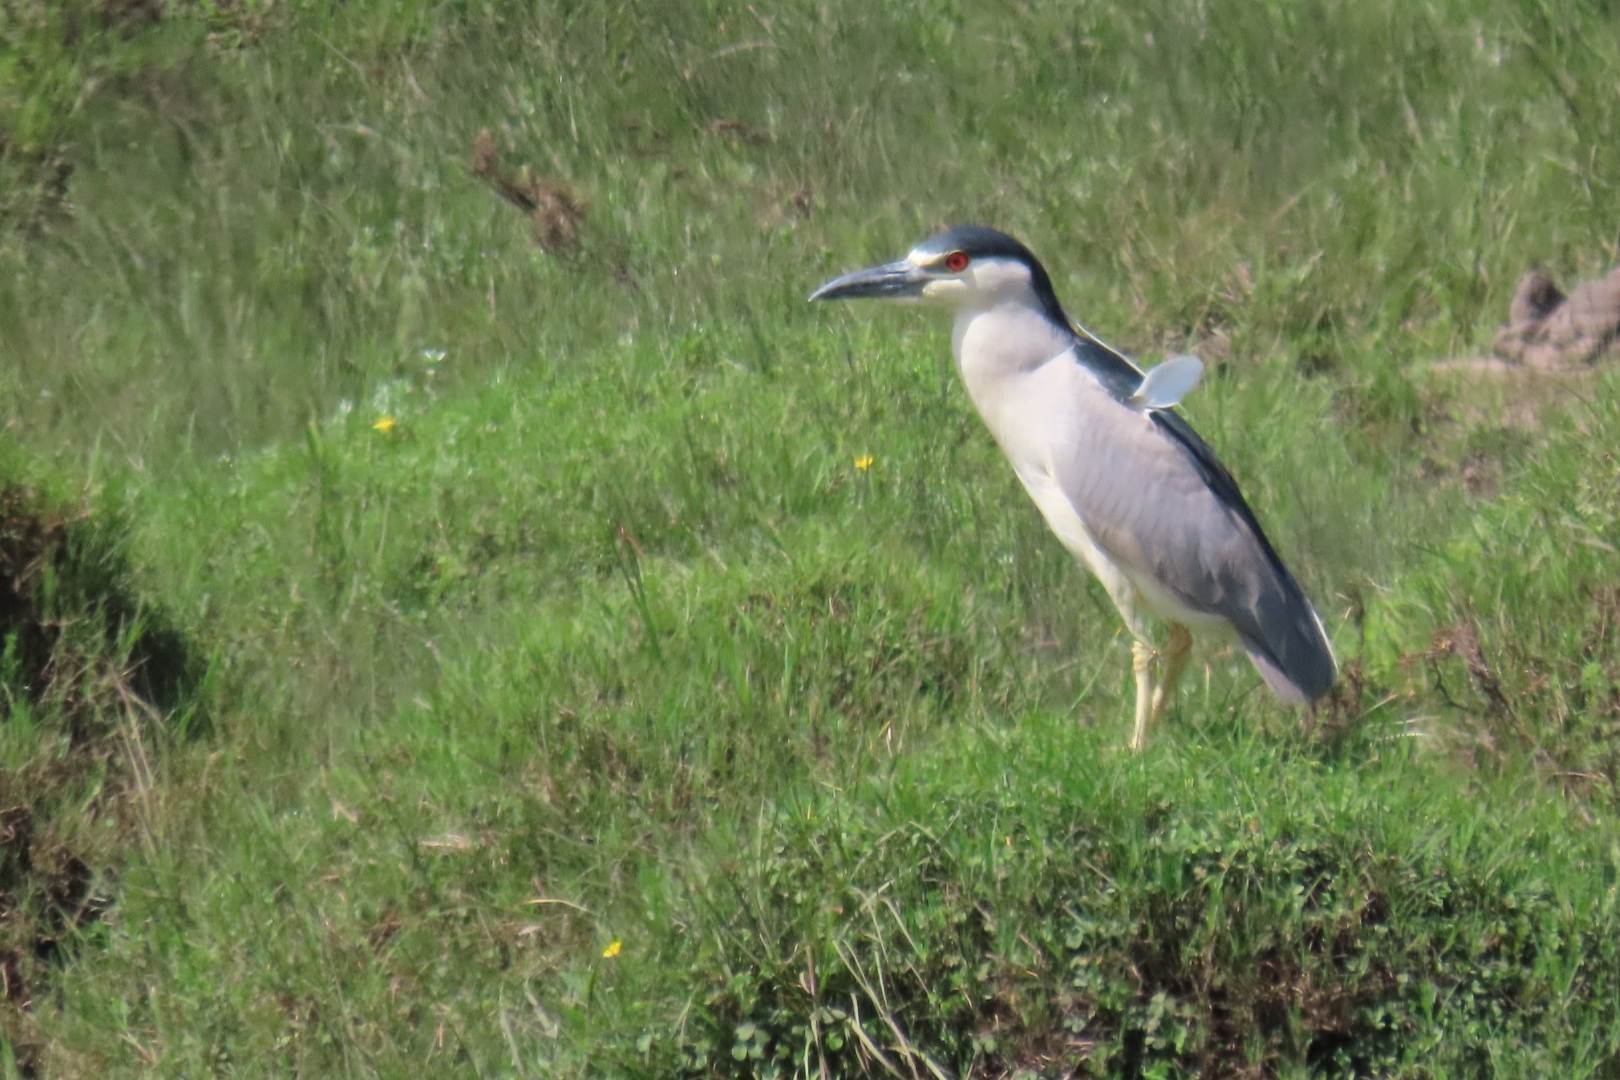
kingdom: Animalia
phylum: Chordata
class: Aves
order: Pelecaniformes
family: Ardeidae
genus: Nycticorax
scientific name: Nycticorax nycticorax
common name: Black-crowned night heron
